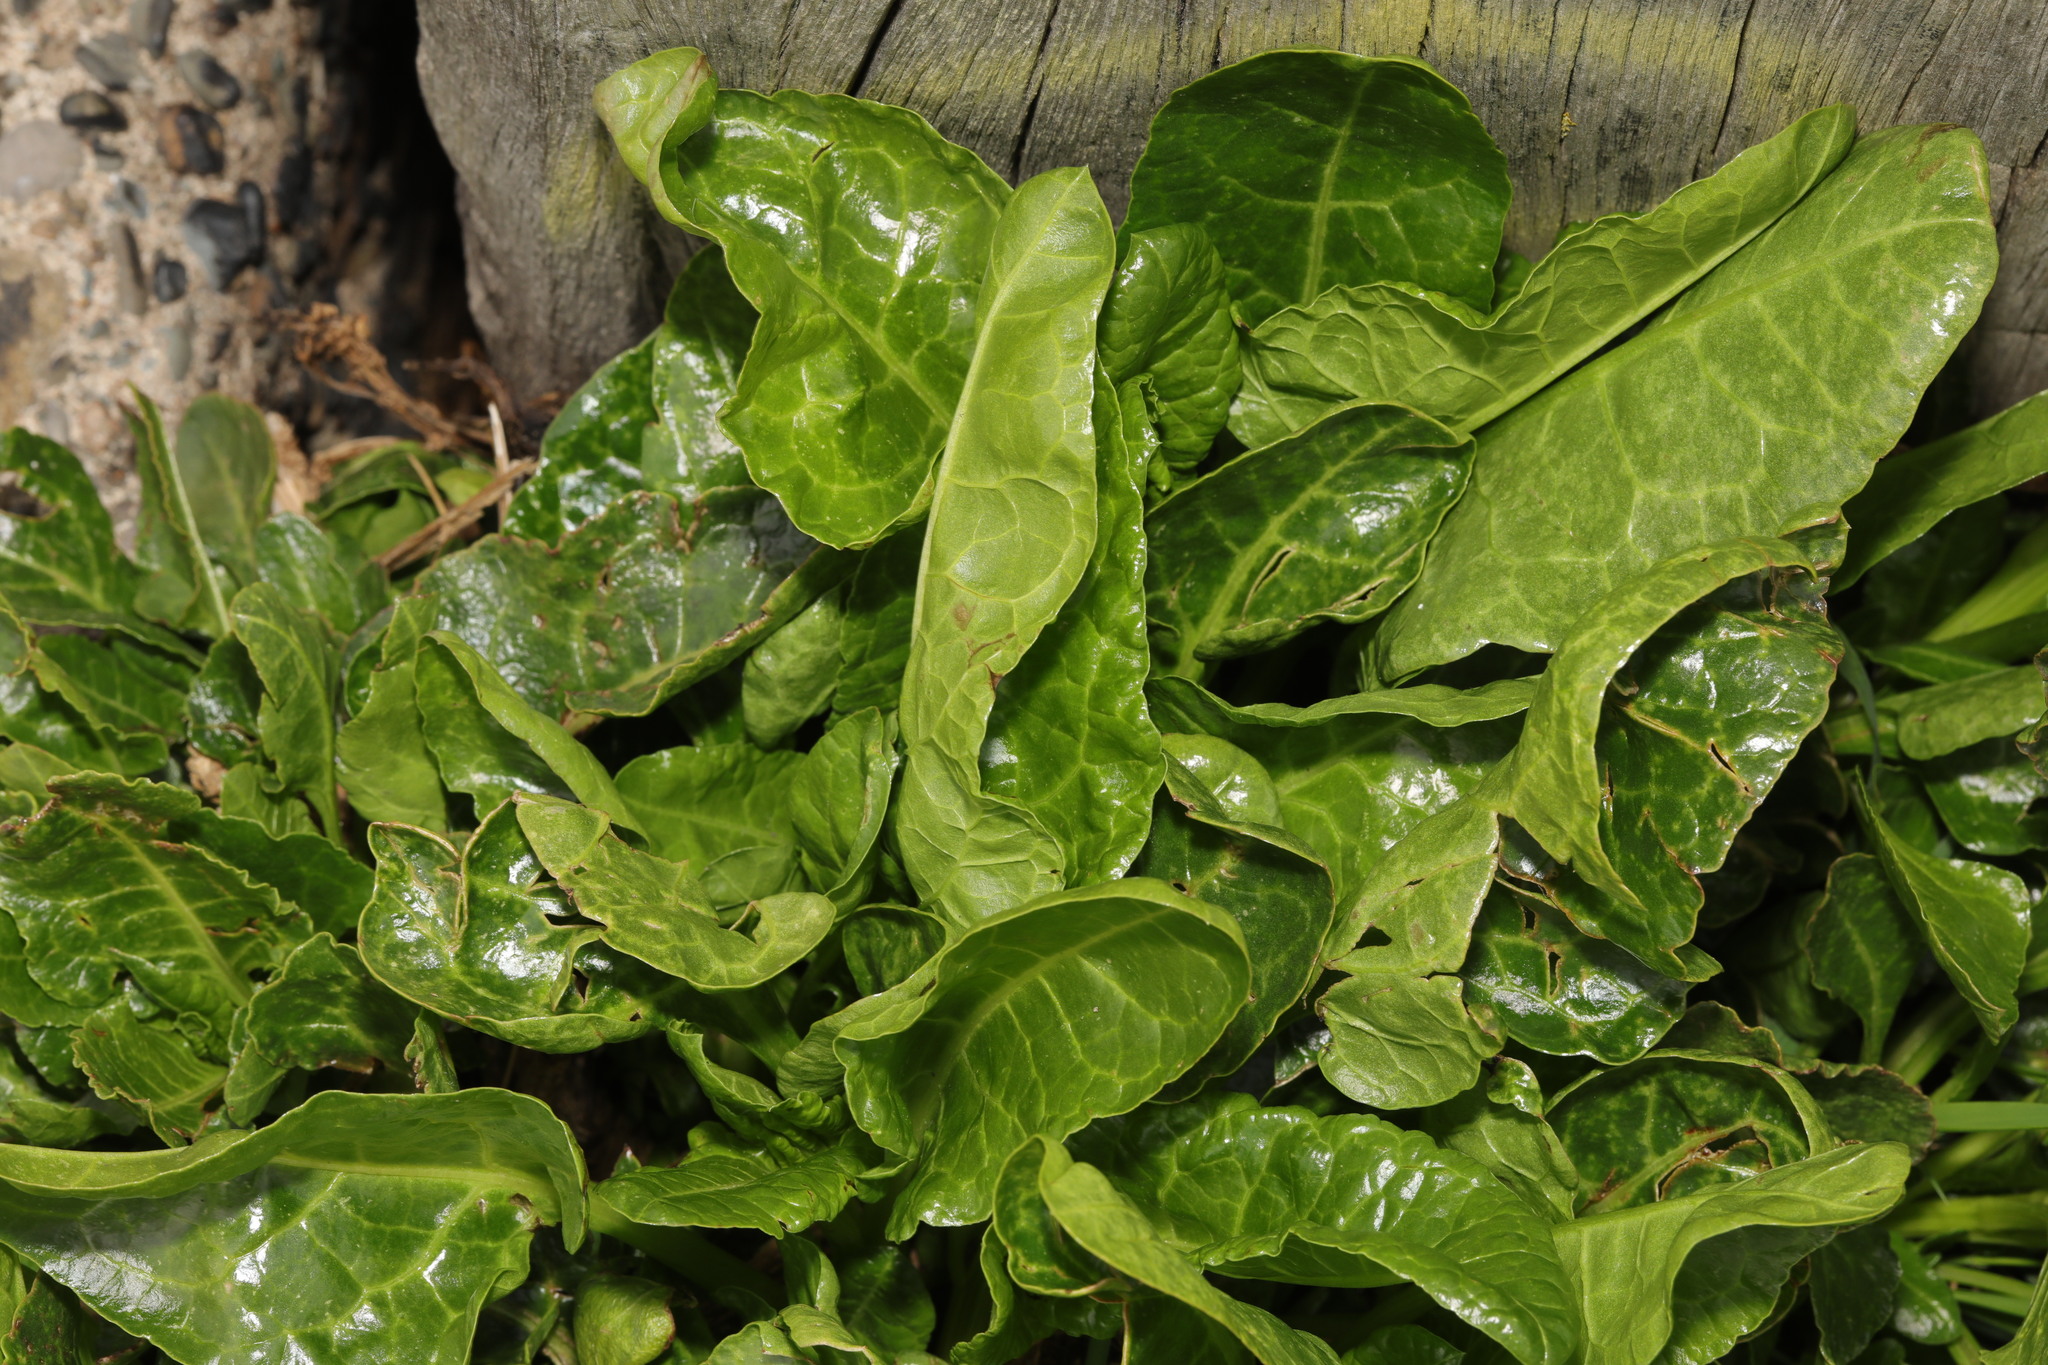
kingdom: Plantae
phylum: Tracheophyta
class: Magnoliopsida
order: Caryophyllales
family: Amaranthaceae
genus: Beta
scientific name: Beta vulgaris
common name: Beet
